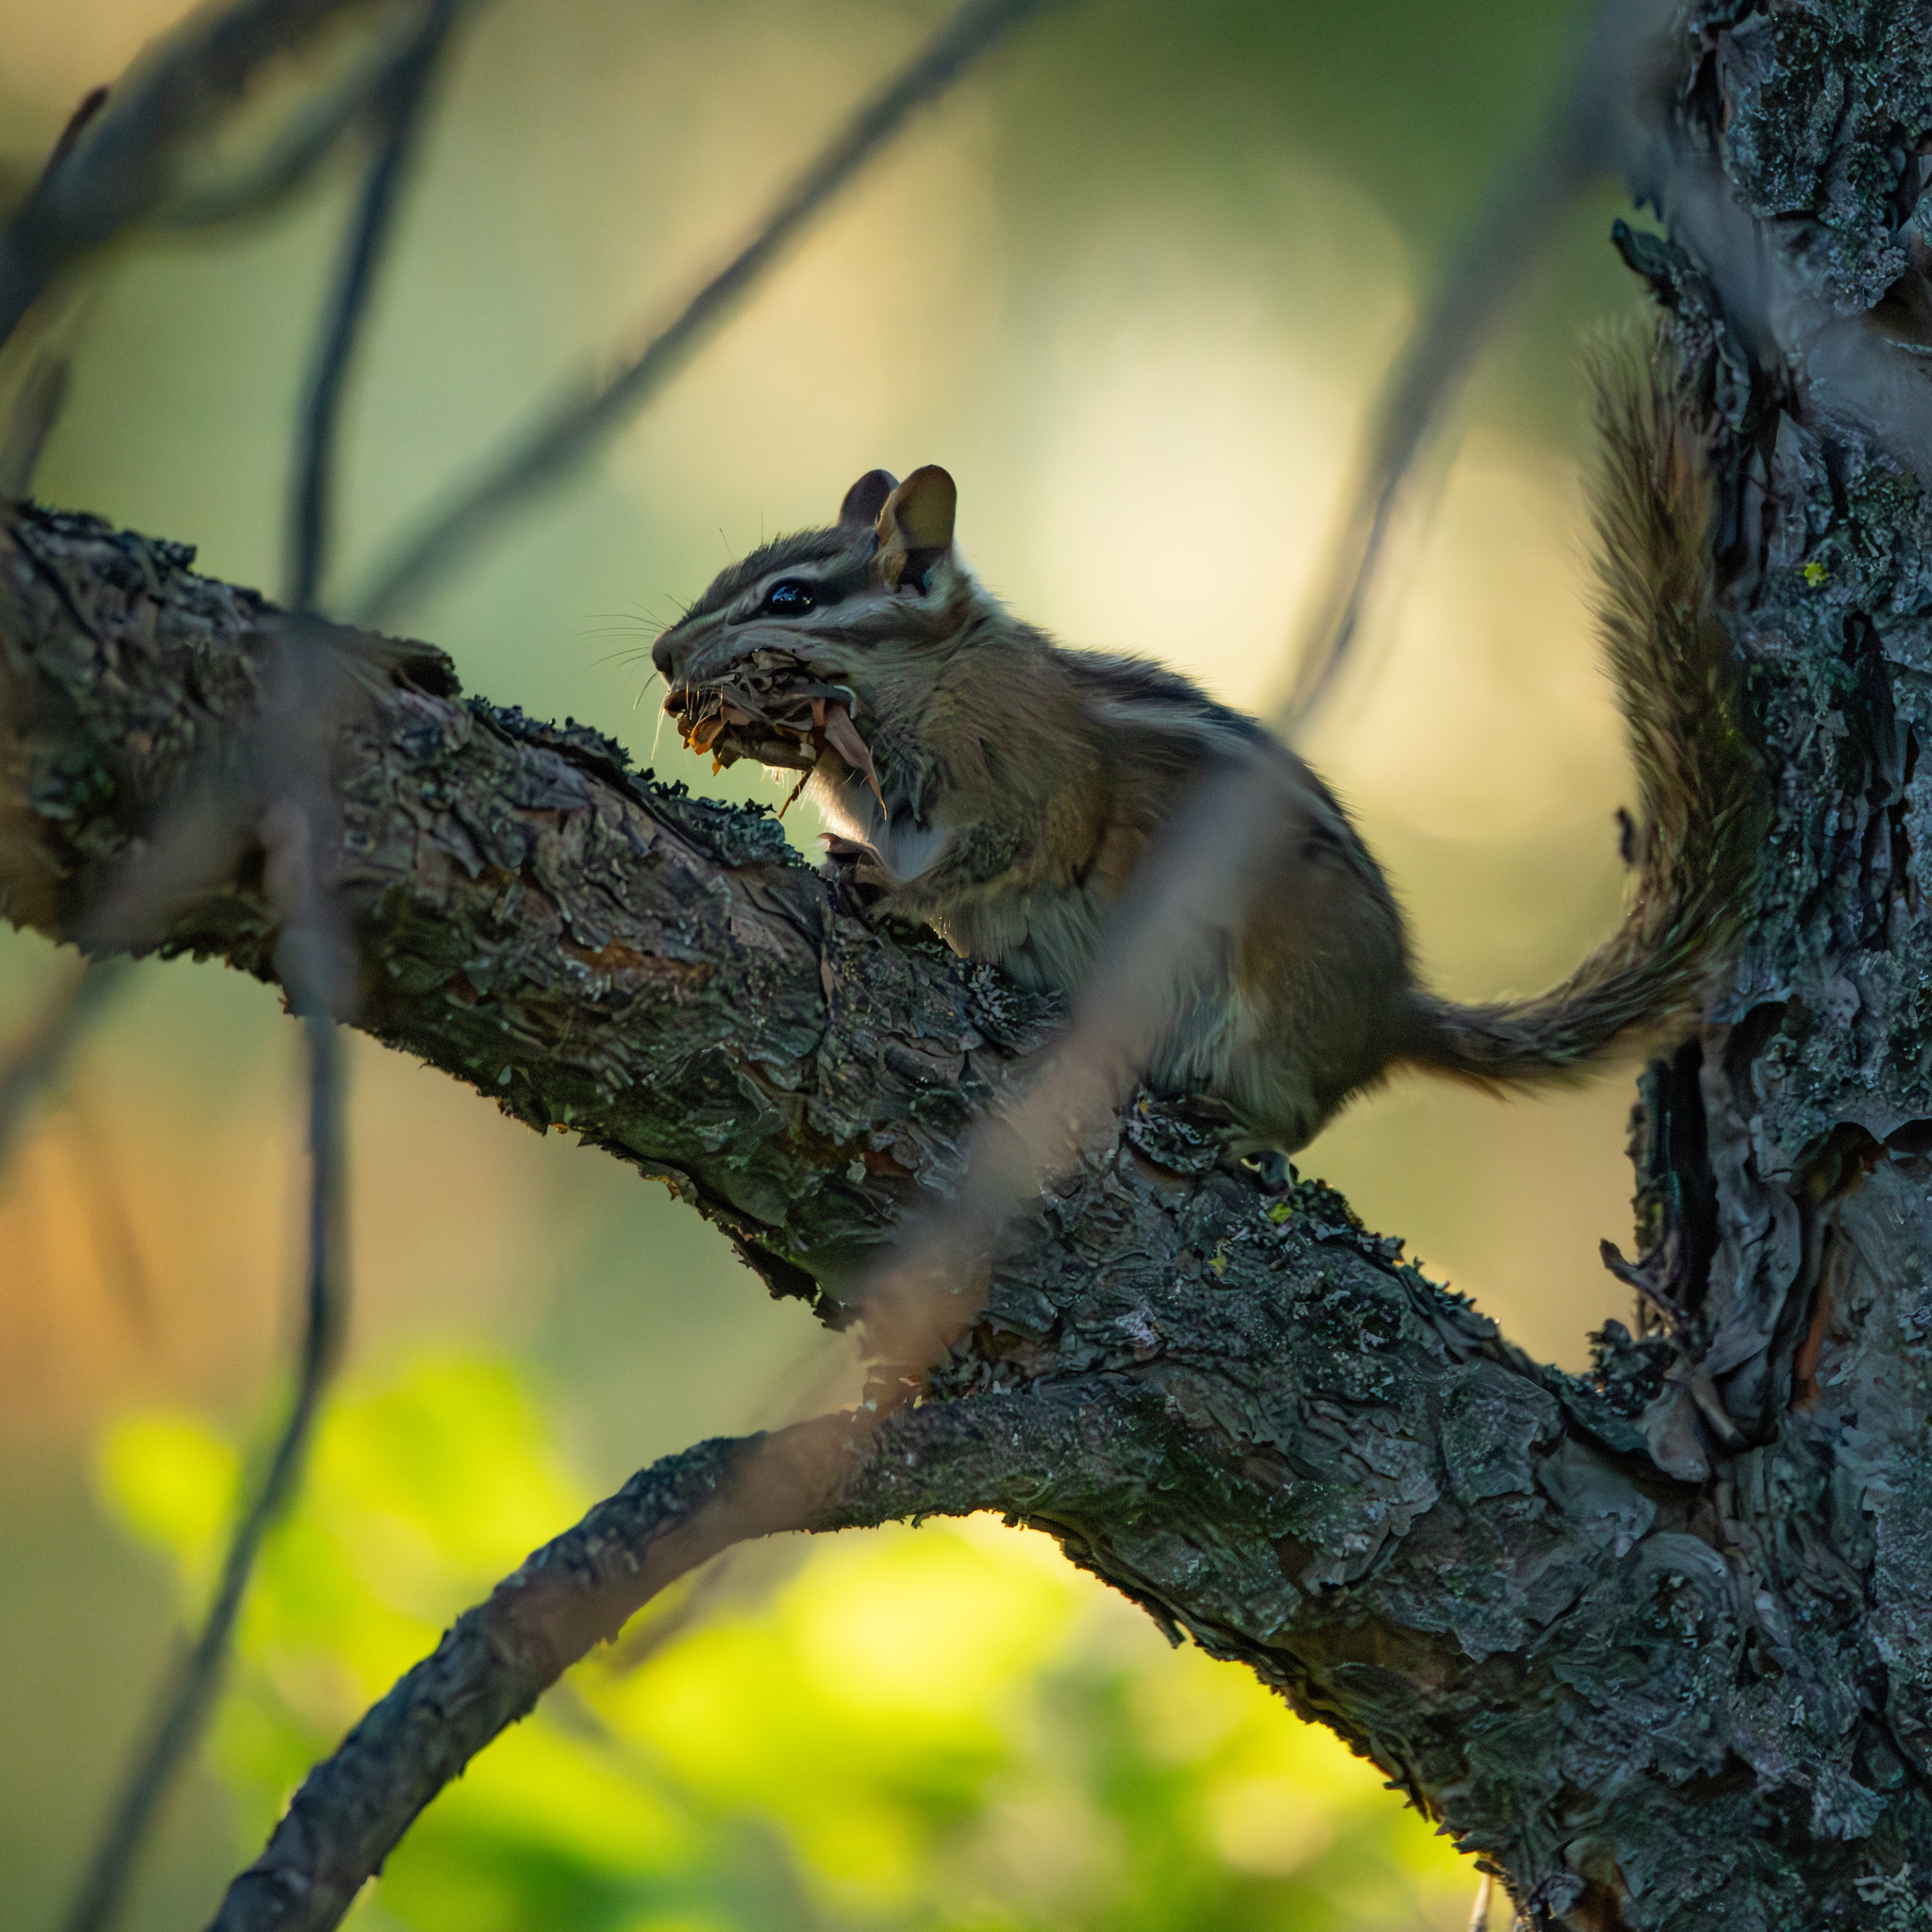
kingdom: Animalia
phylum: Chordata
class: Mammalia
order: Rodentia
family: Sciuridae
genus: Tamias
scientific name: Tamias amoenus
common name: Yellow-pine chipmunk
